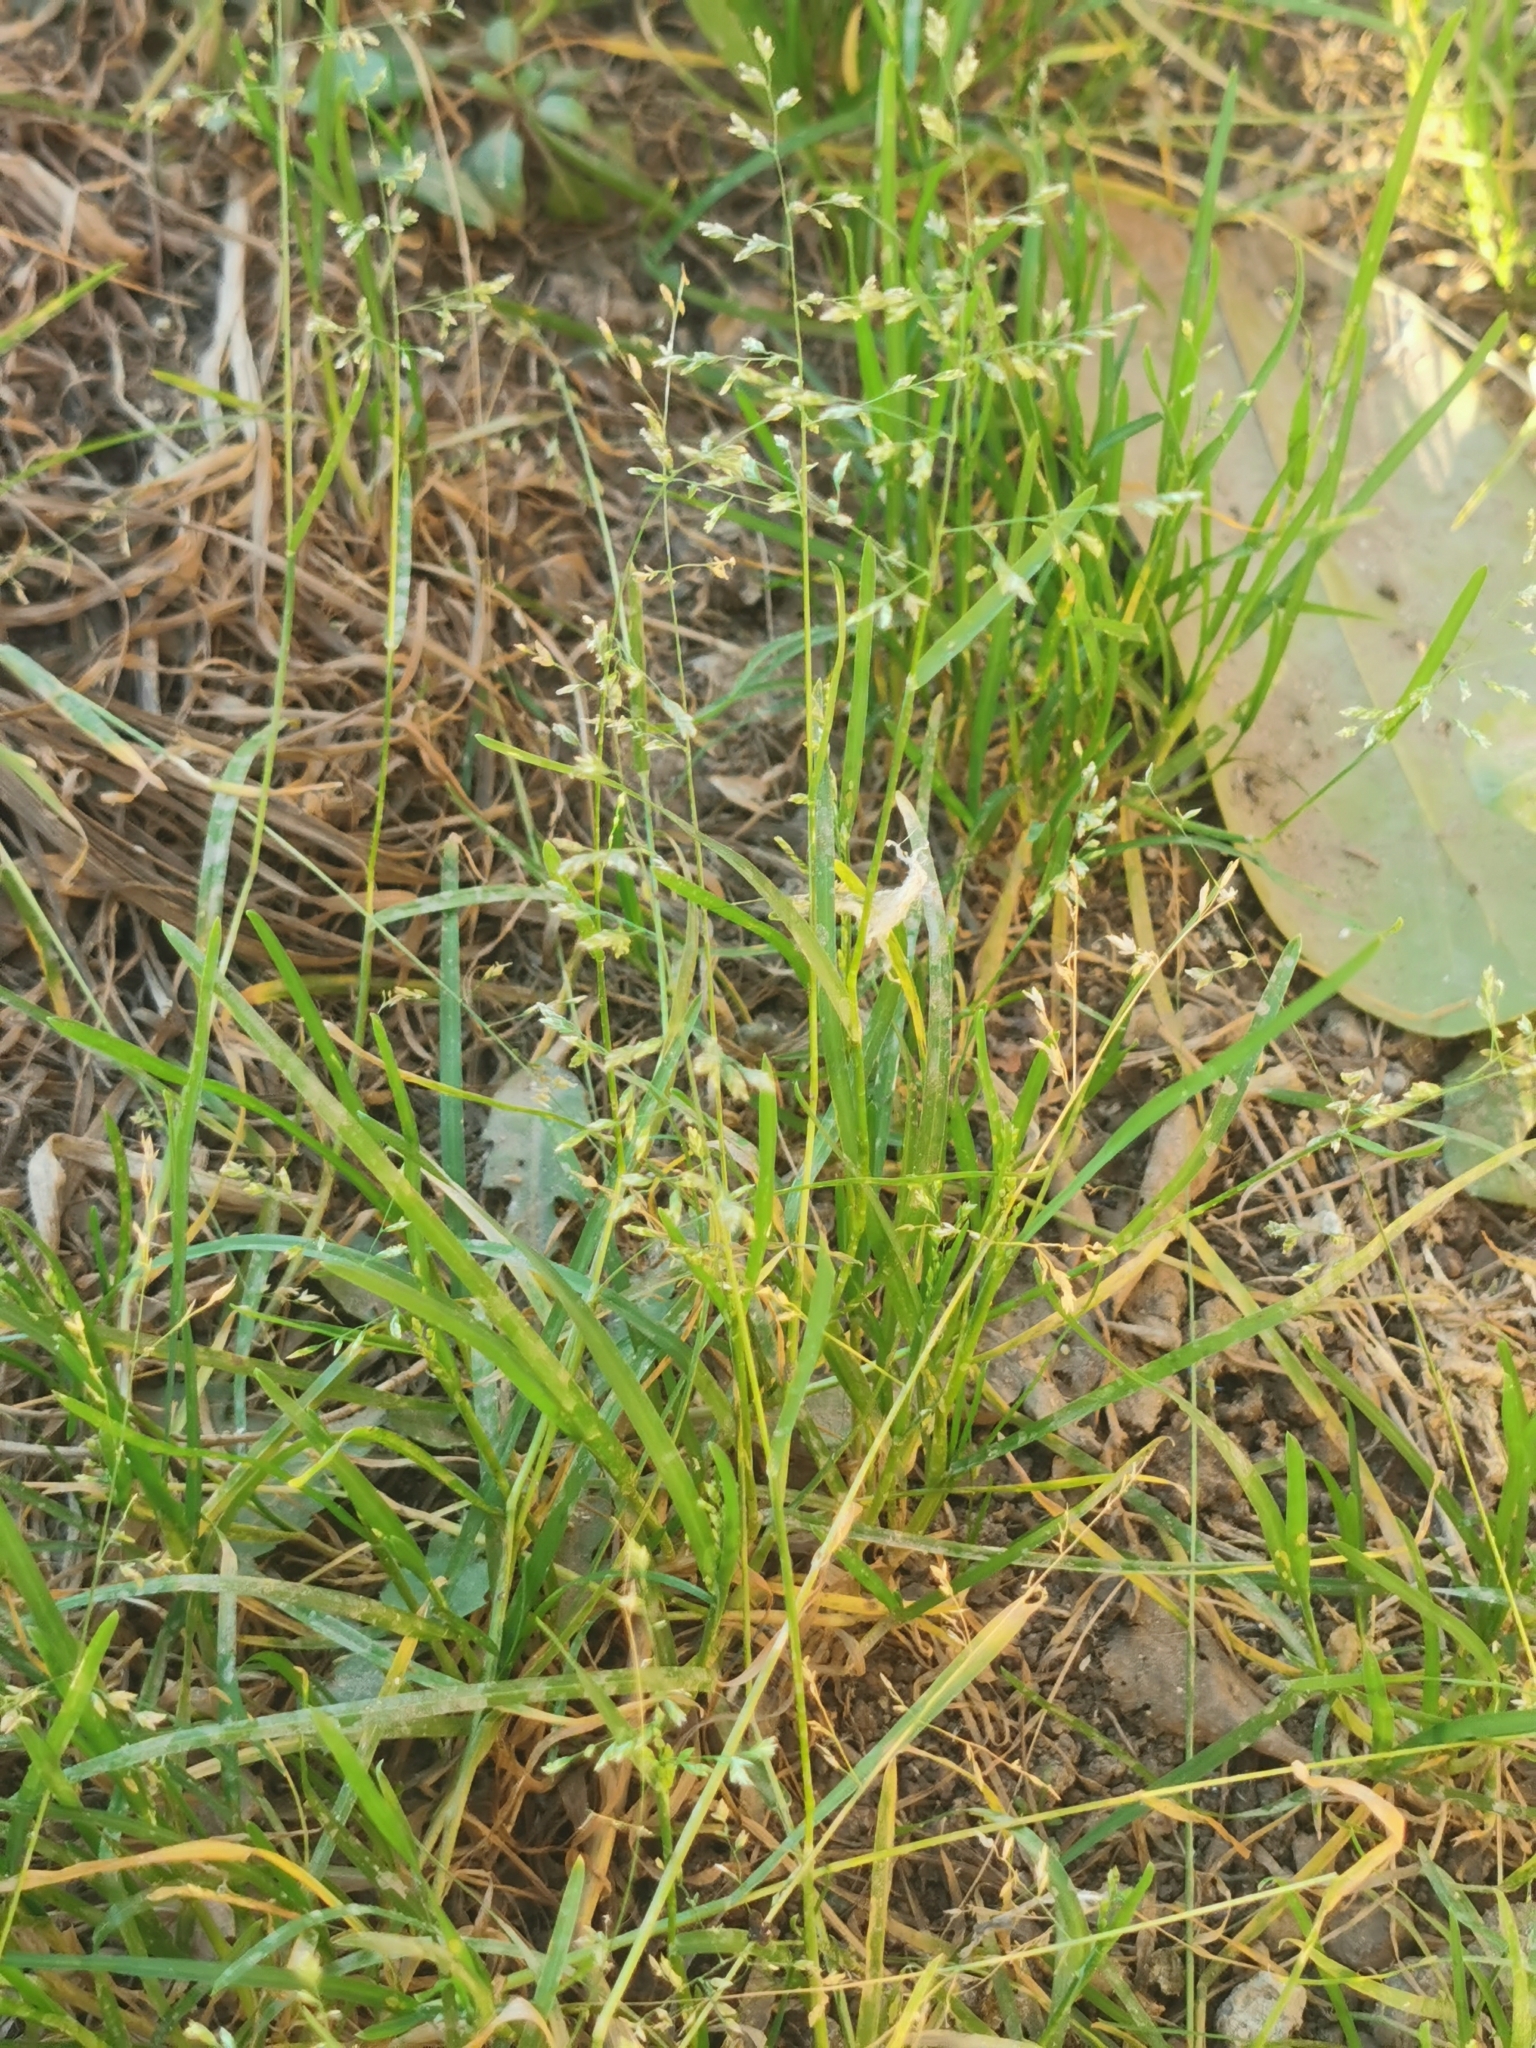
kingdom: Plantae
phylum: Tracheophyta
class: Liliopsida
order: Poales
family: Poaceae
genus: Poa
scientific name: Poa annua
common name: Annual bluegrass
